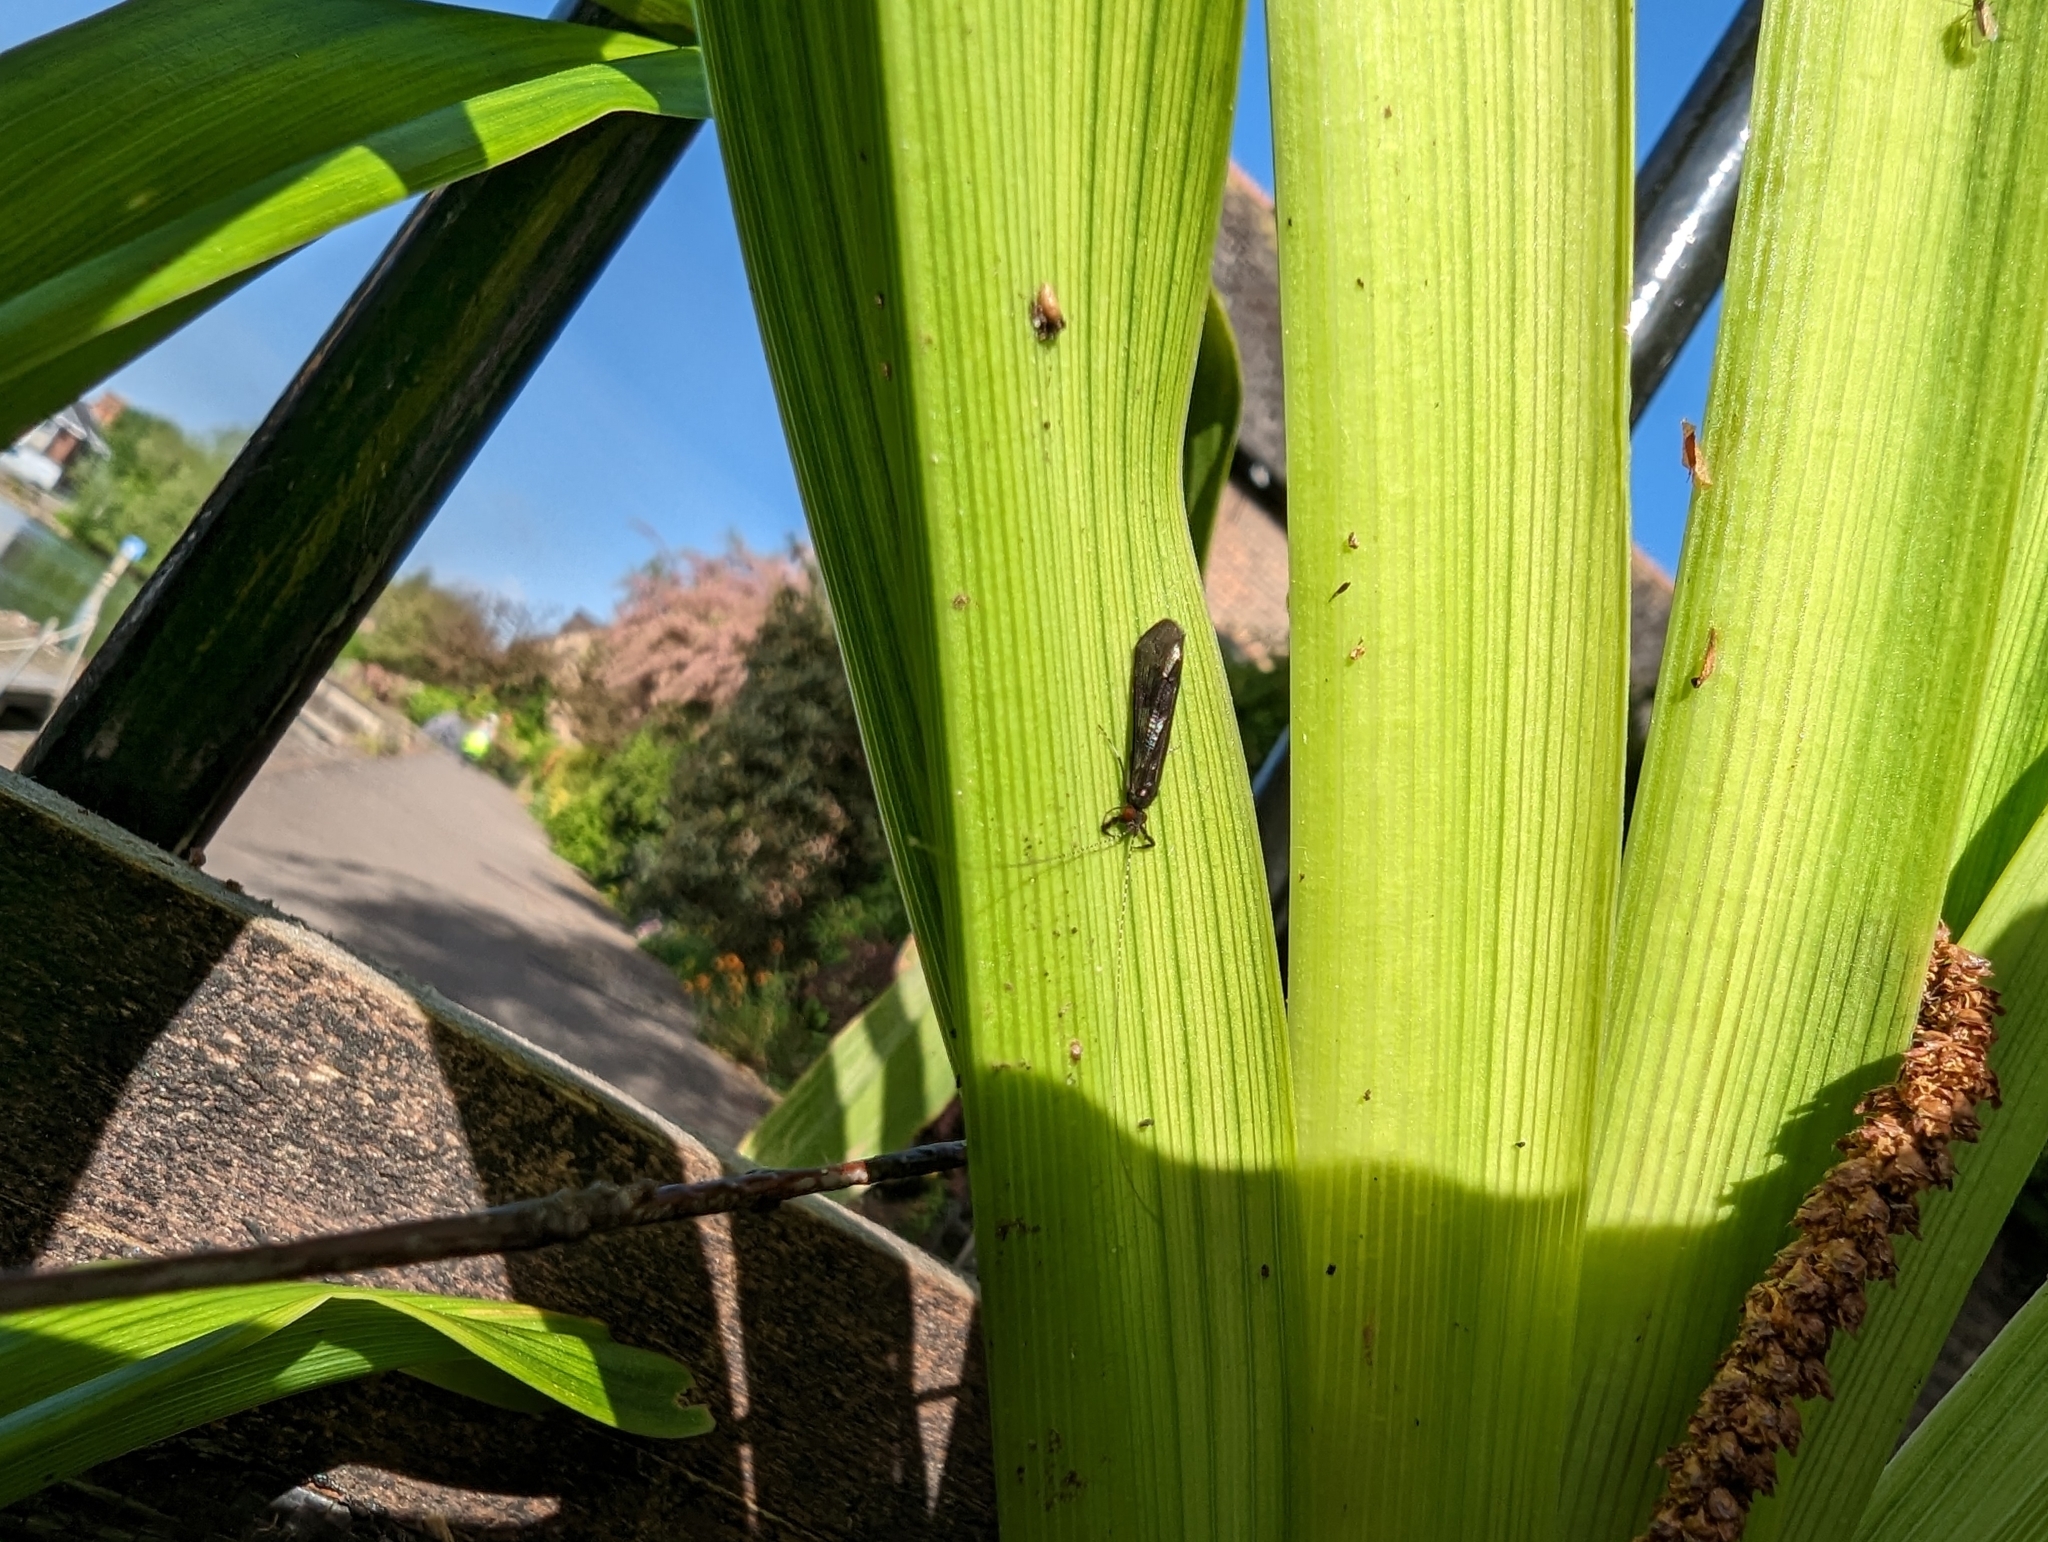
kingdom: Animalia
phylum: Arthropoda
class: Insecta
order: Trichoptera
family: Leptoceridae
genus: Mystacides
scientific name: Mystacides azureus
